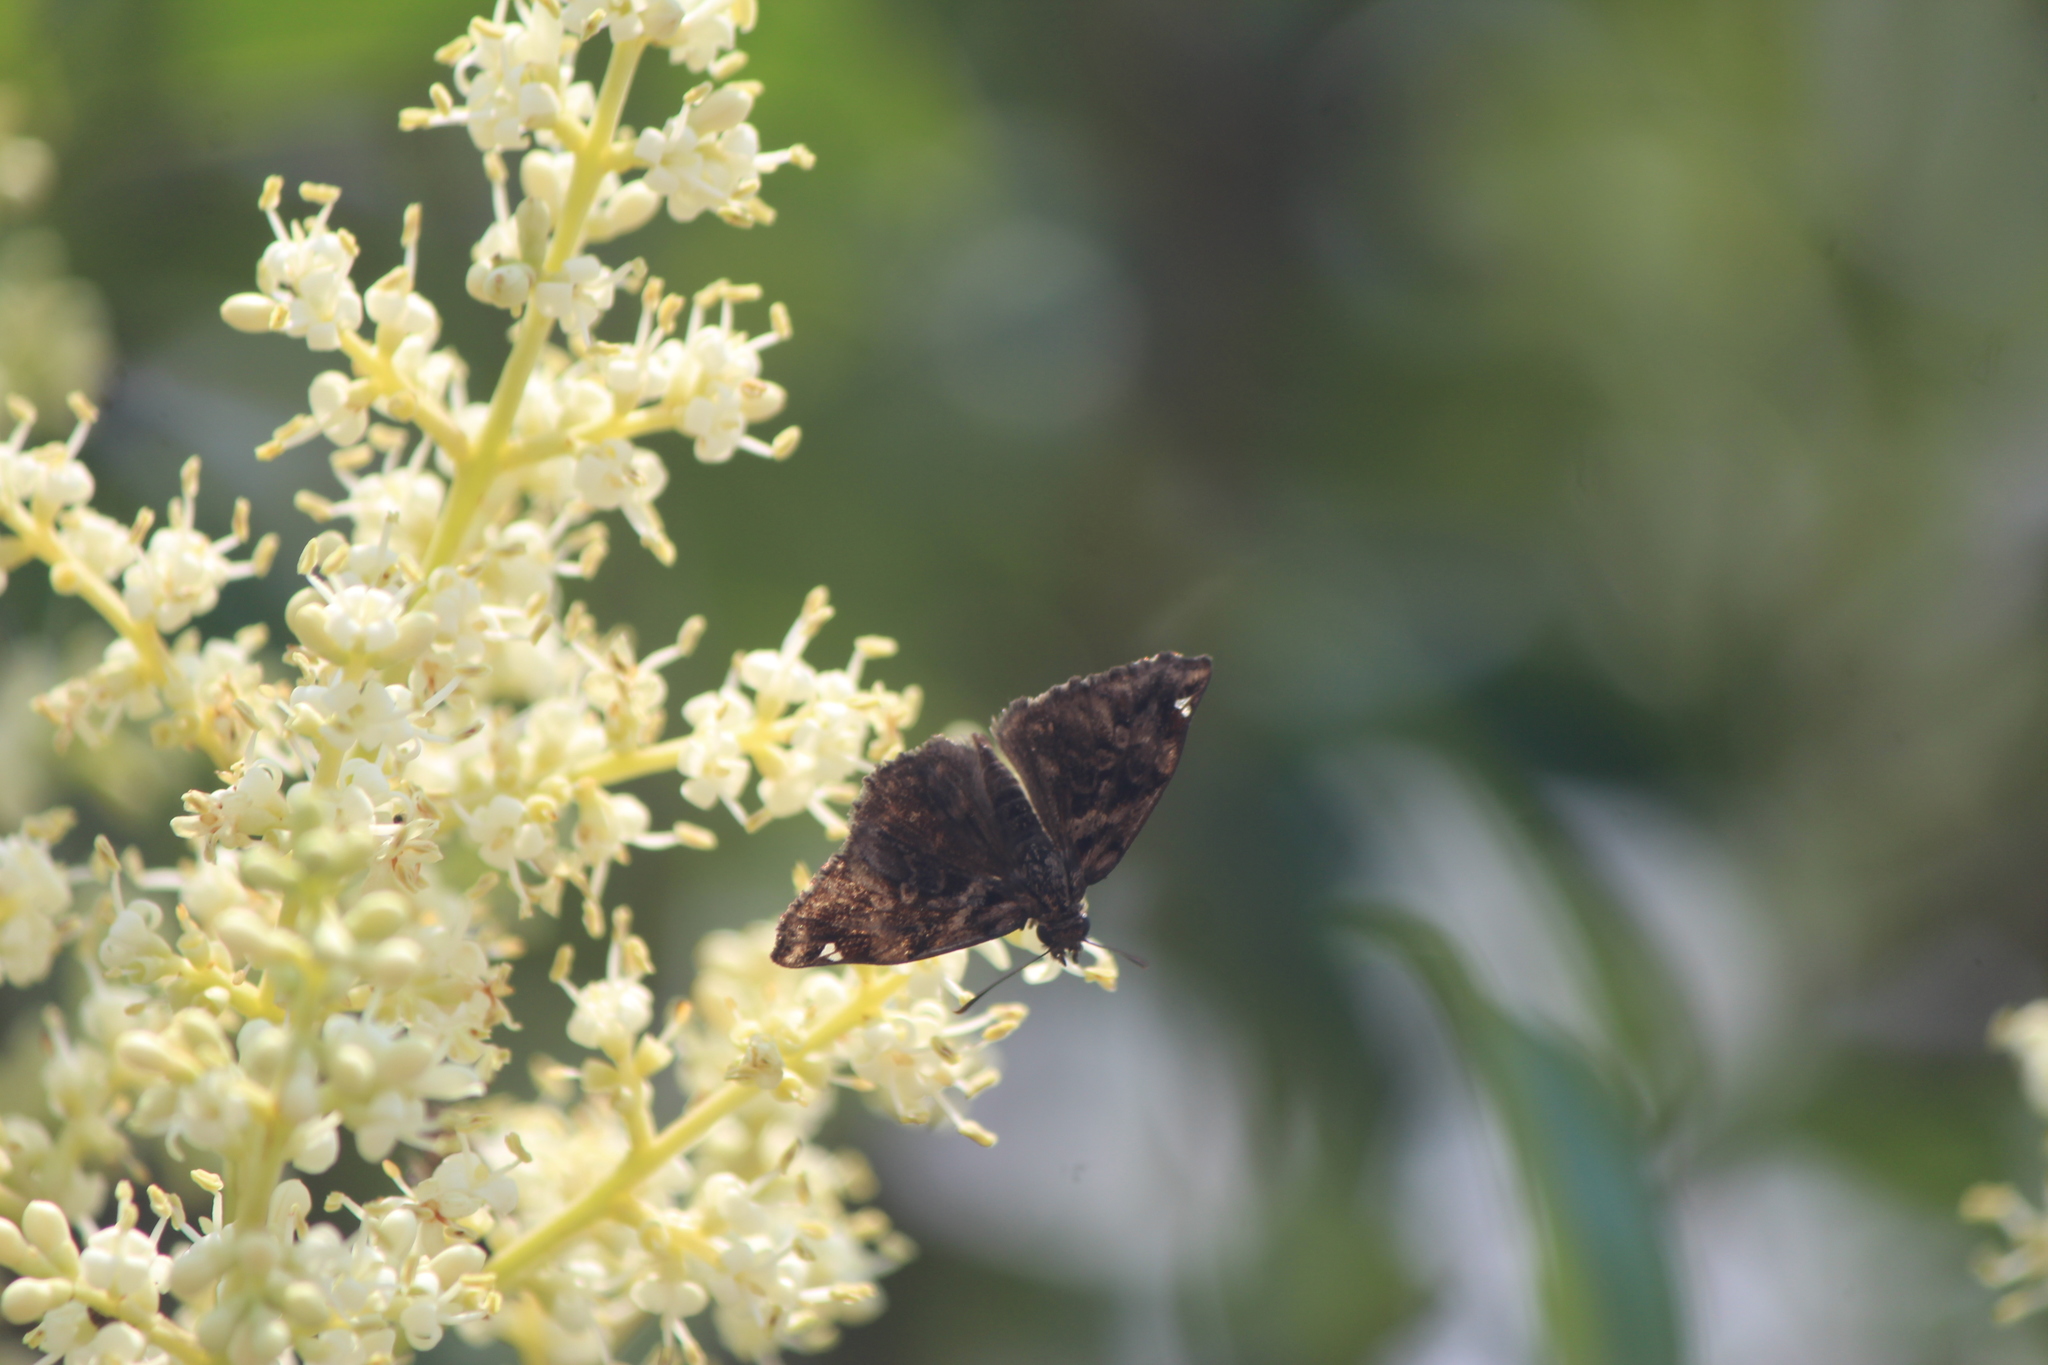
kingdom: Animalia
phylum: Arthropoda
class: Insecta
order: Lepidoptera
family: Hesperiidae
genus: Noctuana
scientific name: Noctuana stator
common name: Red-studded skipper
